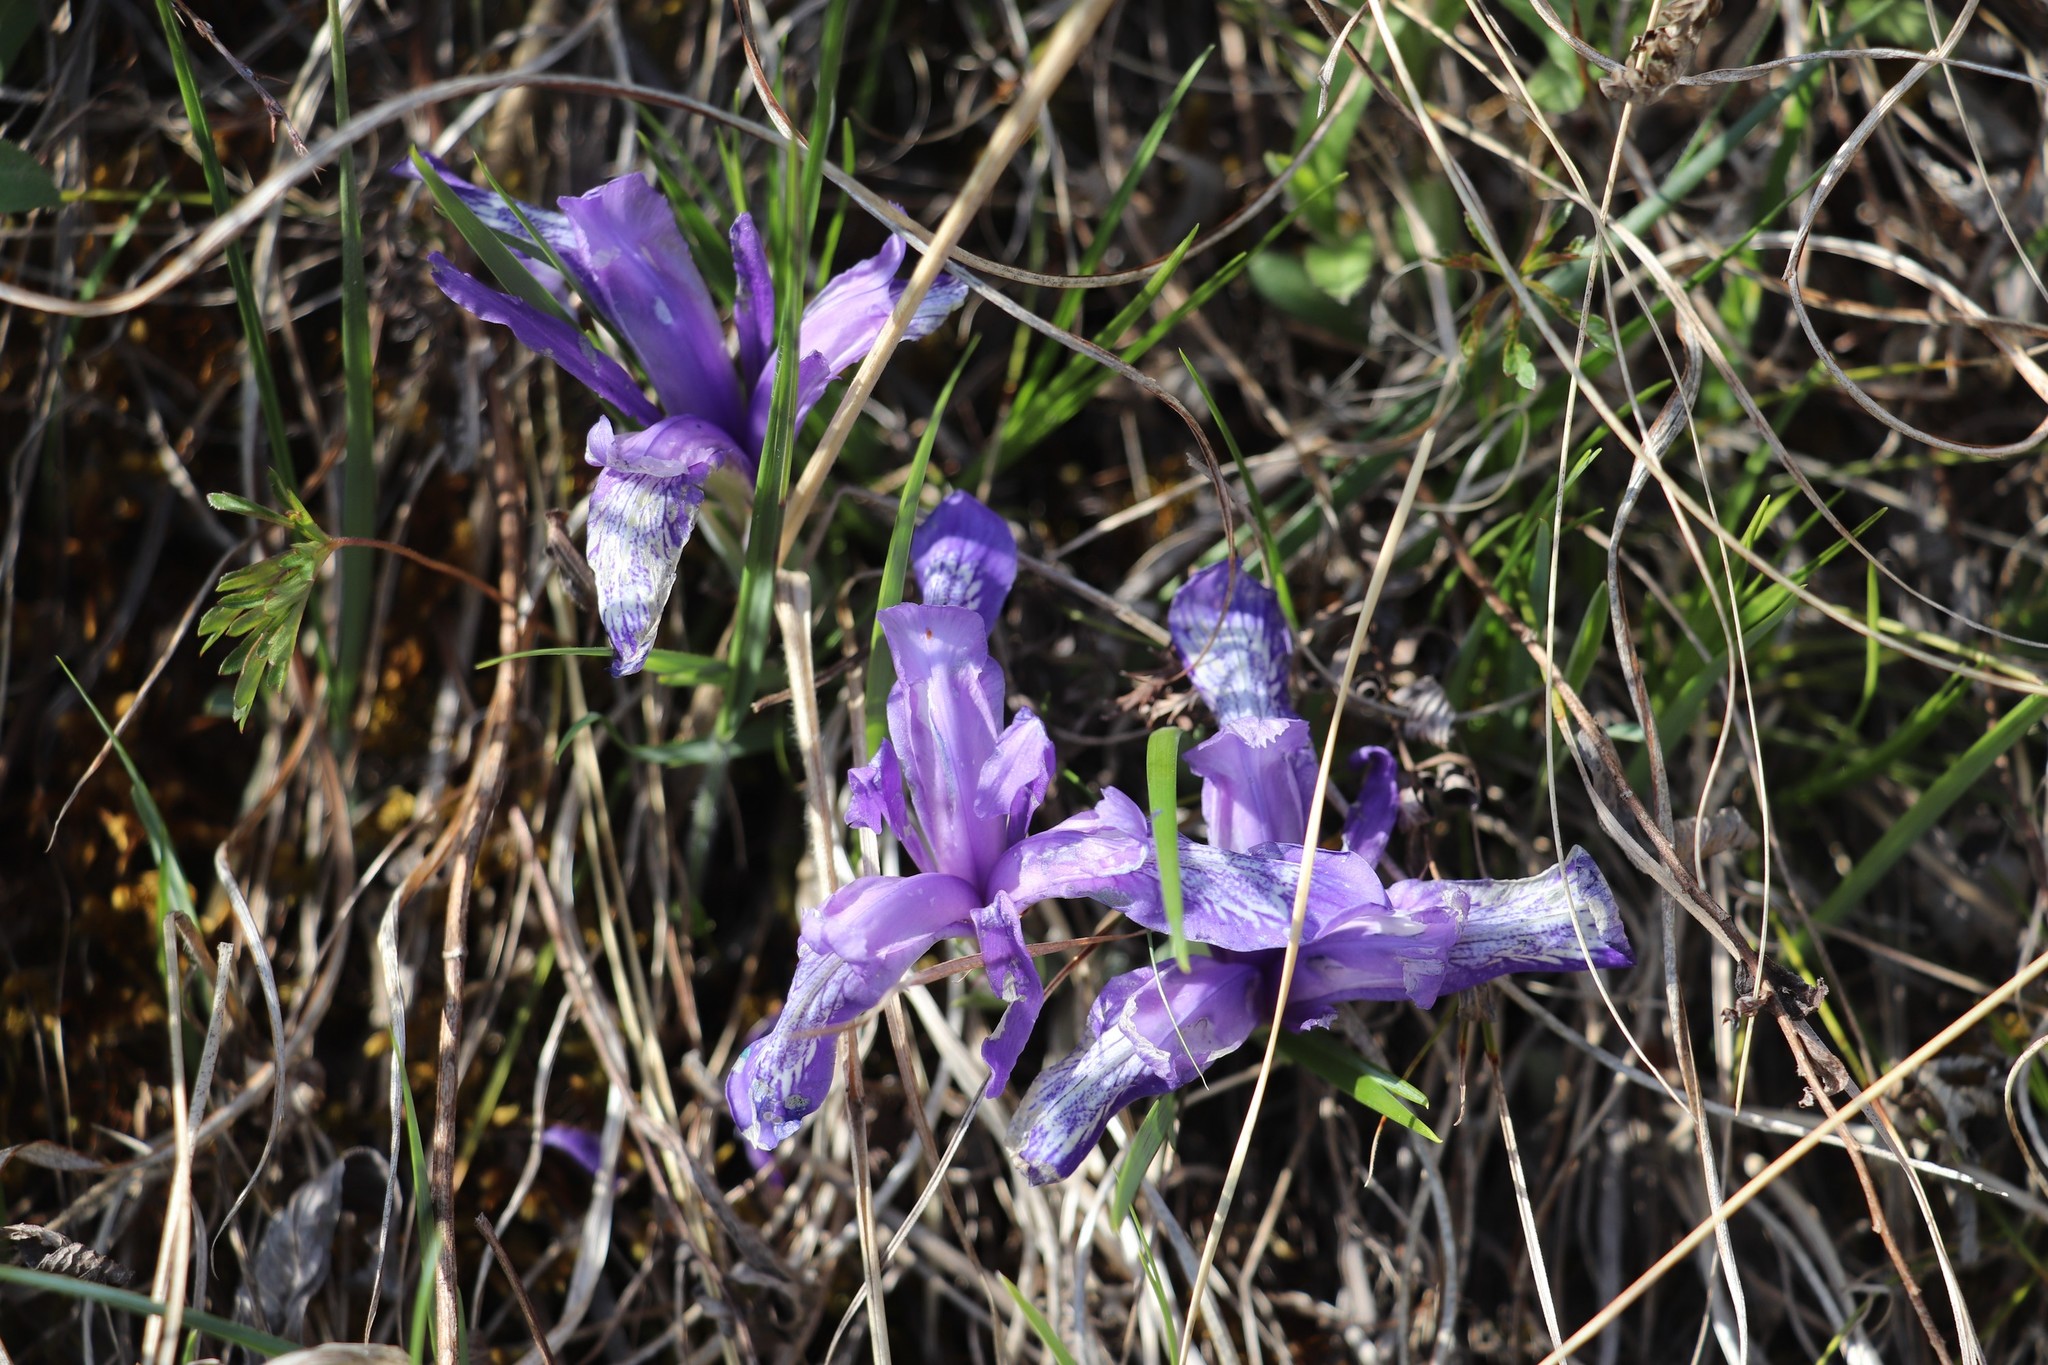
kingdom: Plantae
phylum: Tracheophyta
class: Liliopsida
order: Asparagales
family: Iridaceae
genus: Iris
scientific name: Iris ruthenica
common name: Purple-bract iris
